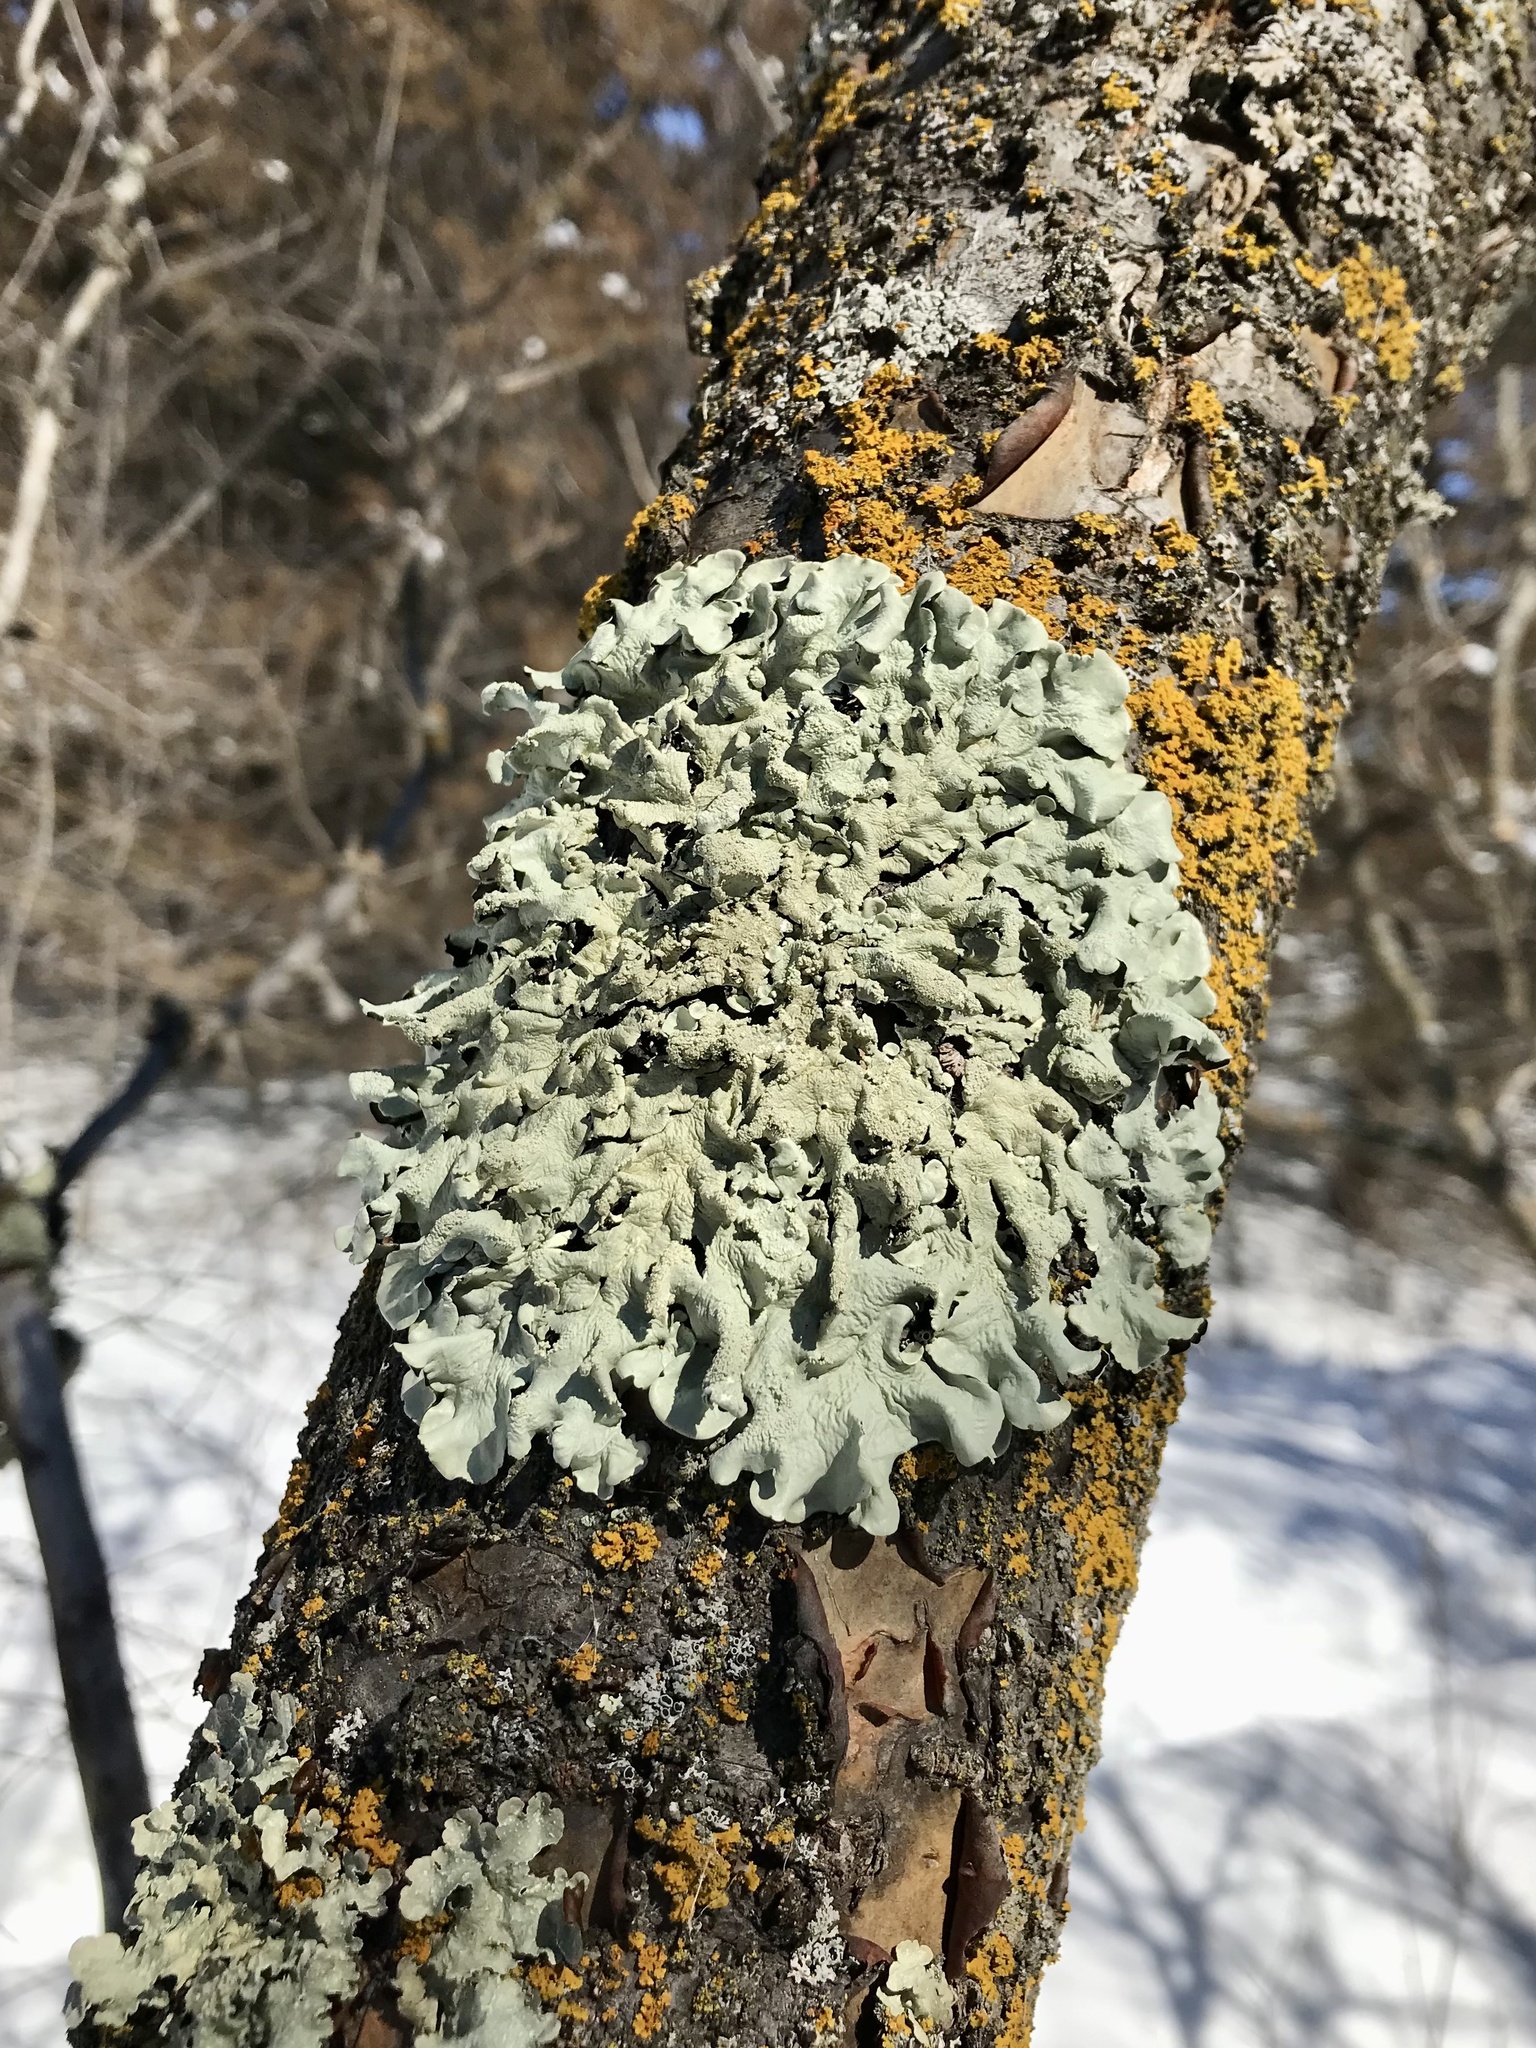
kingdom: Fungi
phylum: Ascomycota
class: Lecanoromycetes
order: Lecanorales
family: Parmeliaceae
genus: Flavoparmelia
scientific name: Flavoparmelia caperata
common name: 40-mile per hour lichen
